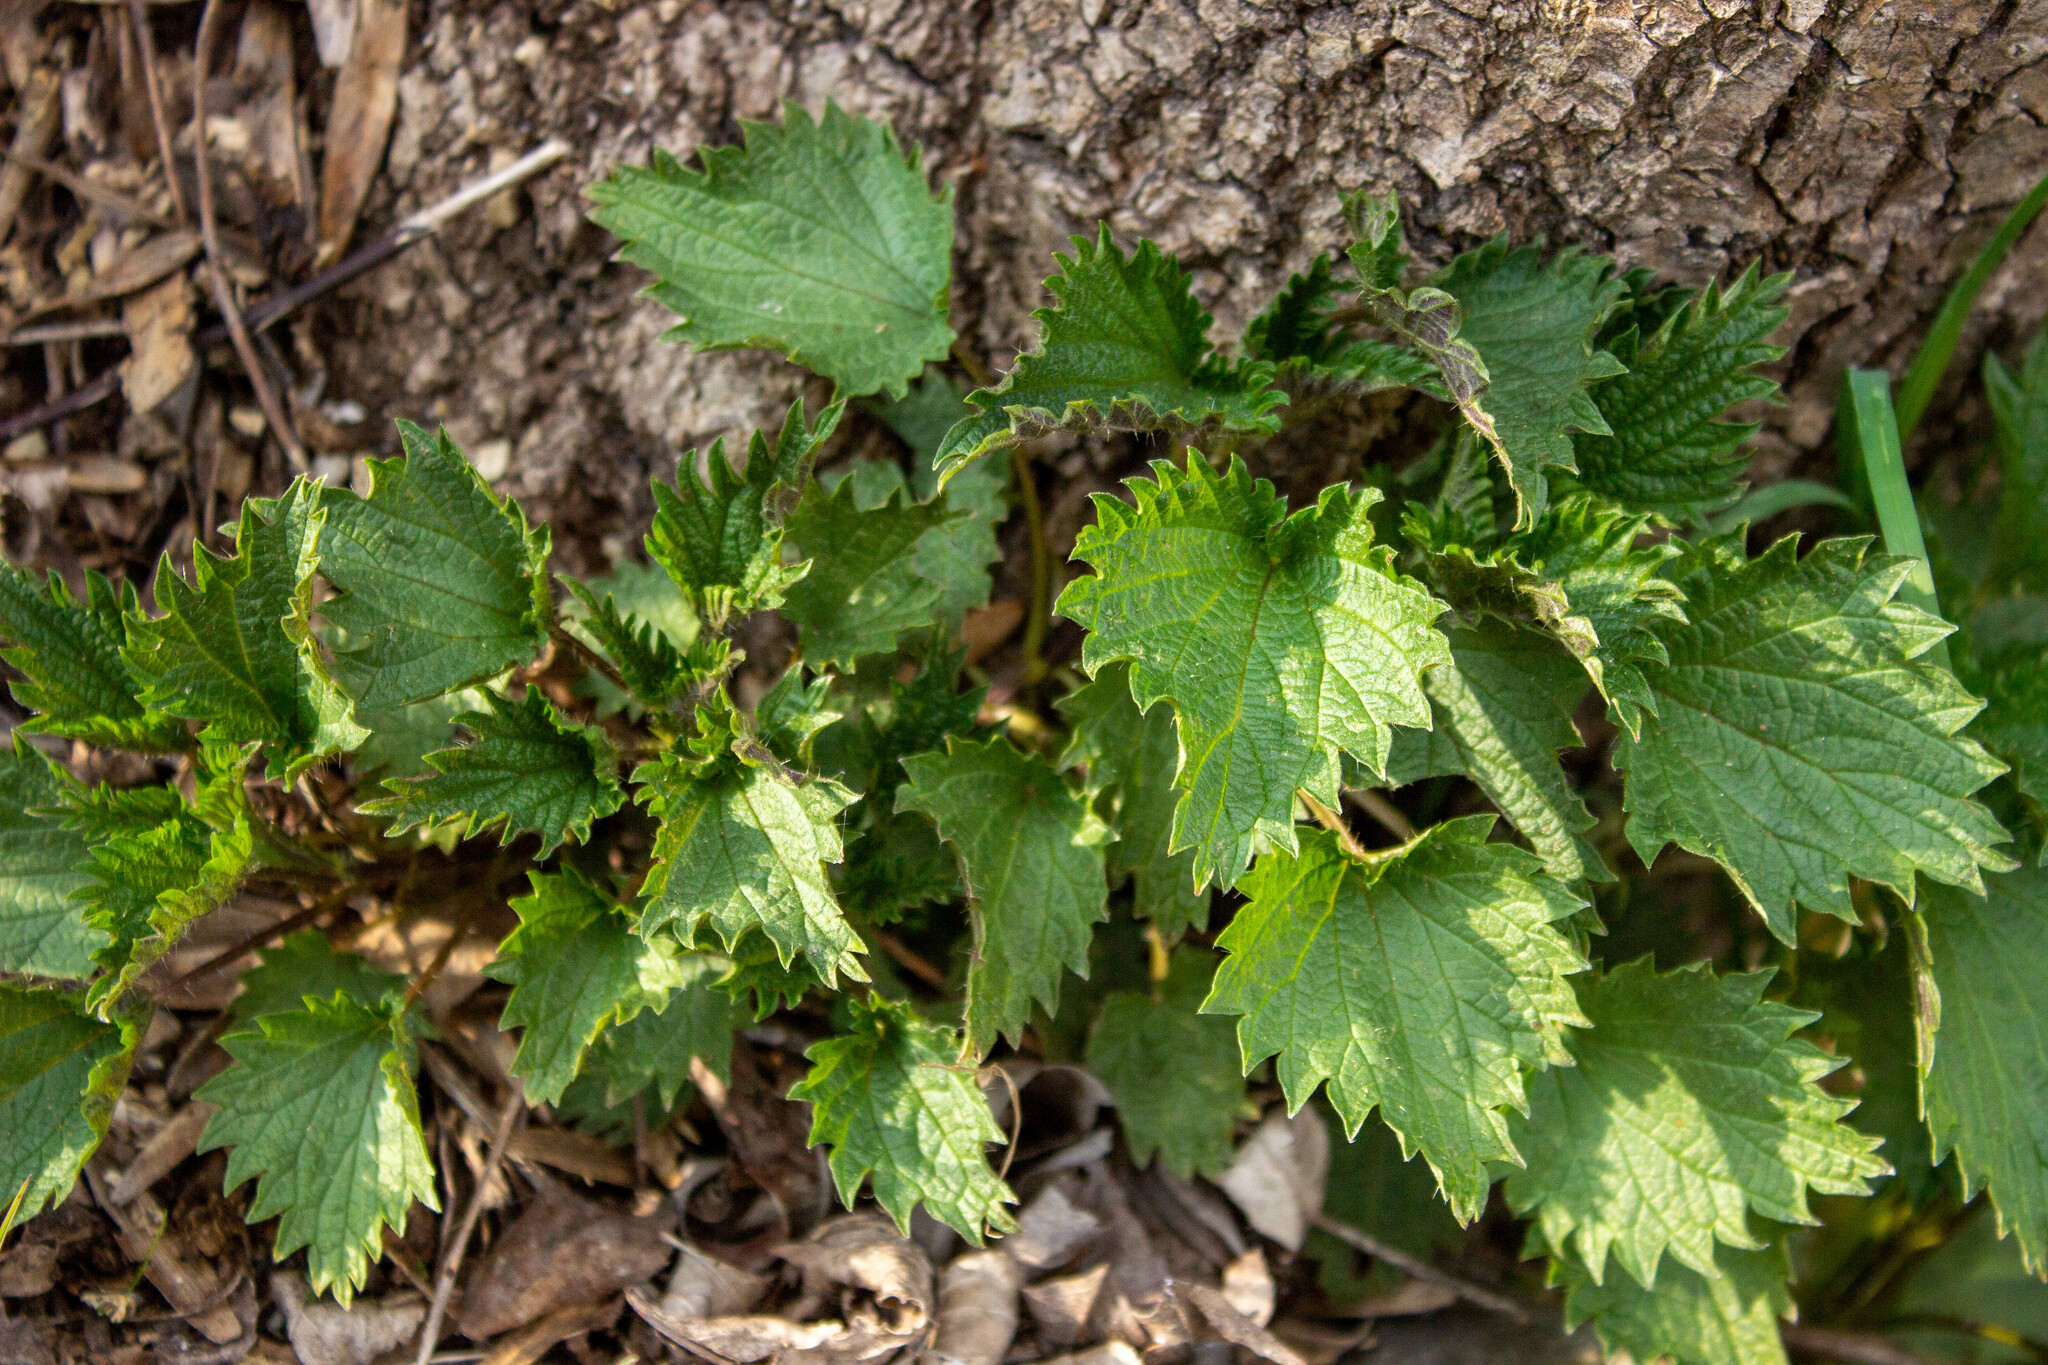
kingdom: Plantae
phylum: Tracheophyta
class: Magnoliopsida
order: Rosales
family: Urticaceae
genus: Urtica
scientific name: Urtica dioica
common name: Common nettle
